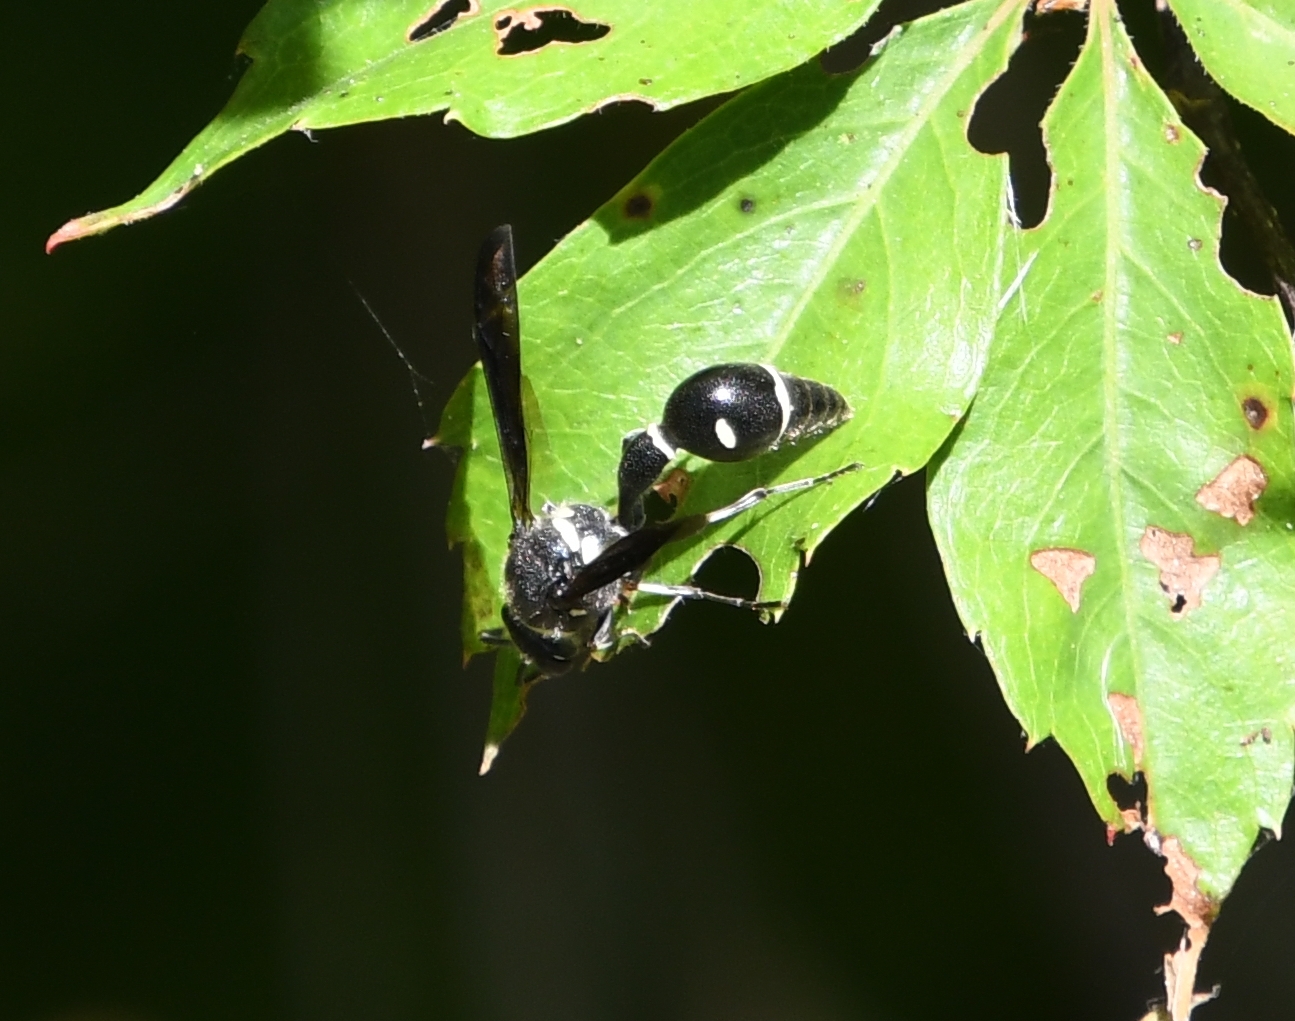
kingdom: Animalia
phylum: Arthropoda
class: Insecta
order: Hymenoptera
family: Vespidae
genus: Eumenes
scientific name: Eumenes fraternus
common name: Fraternal potter wasp
